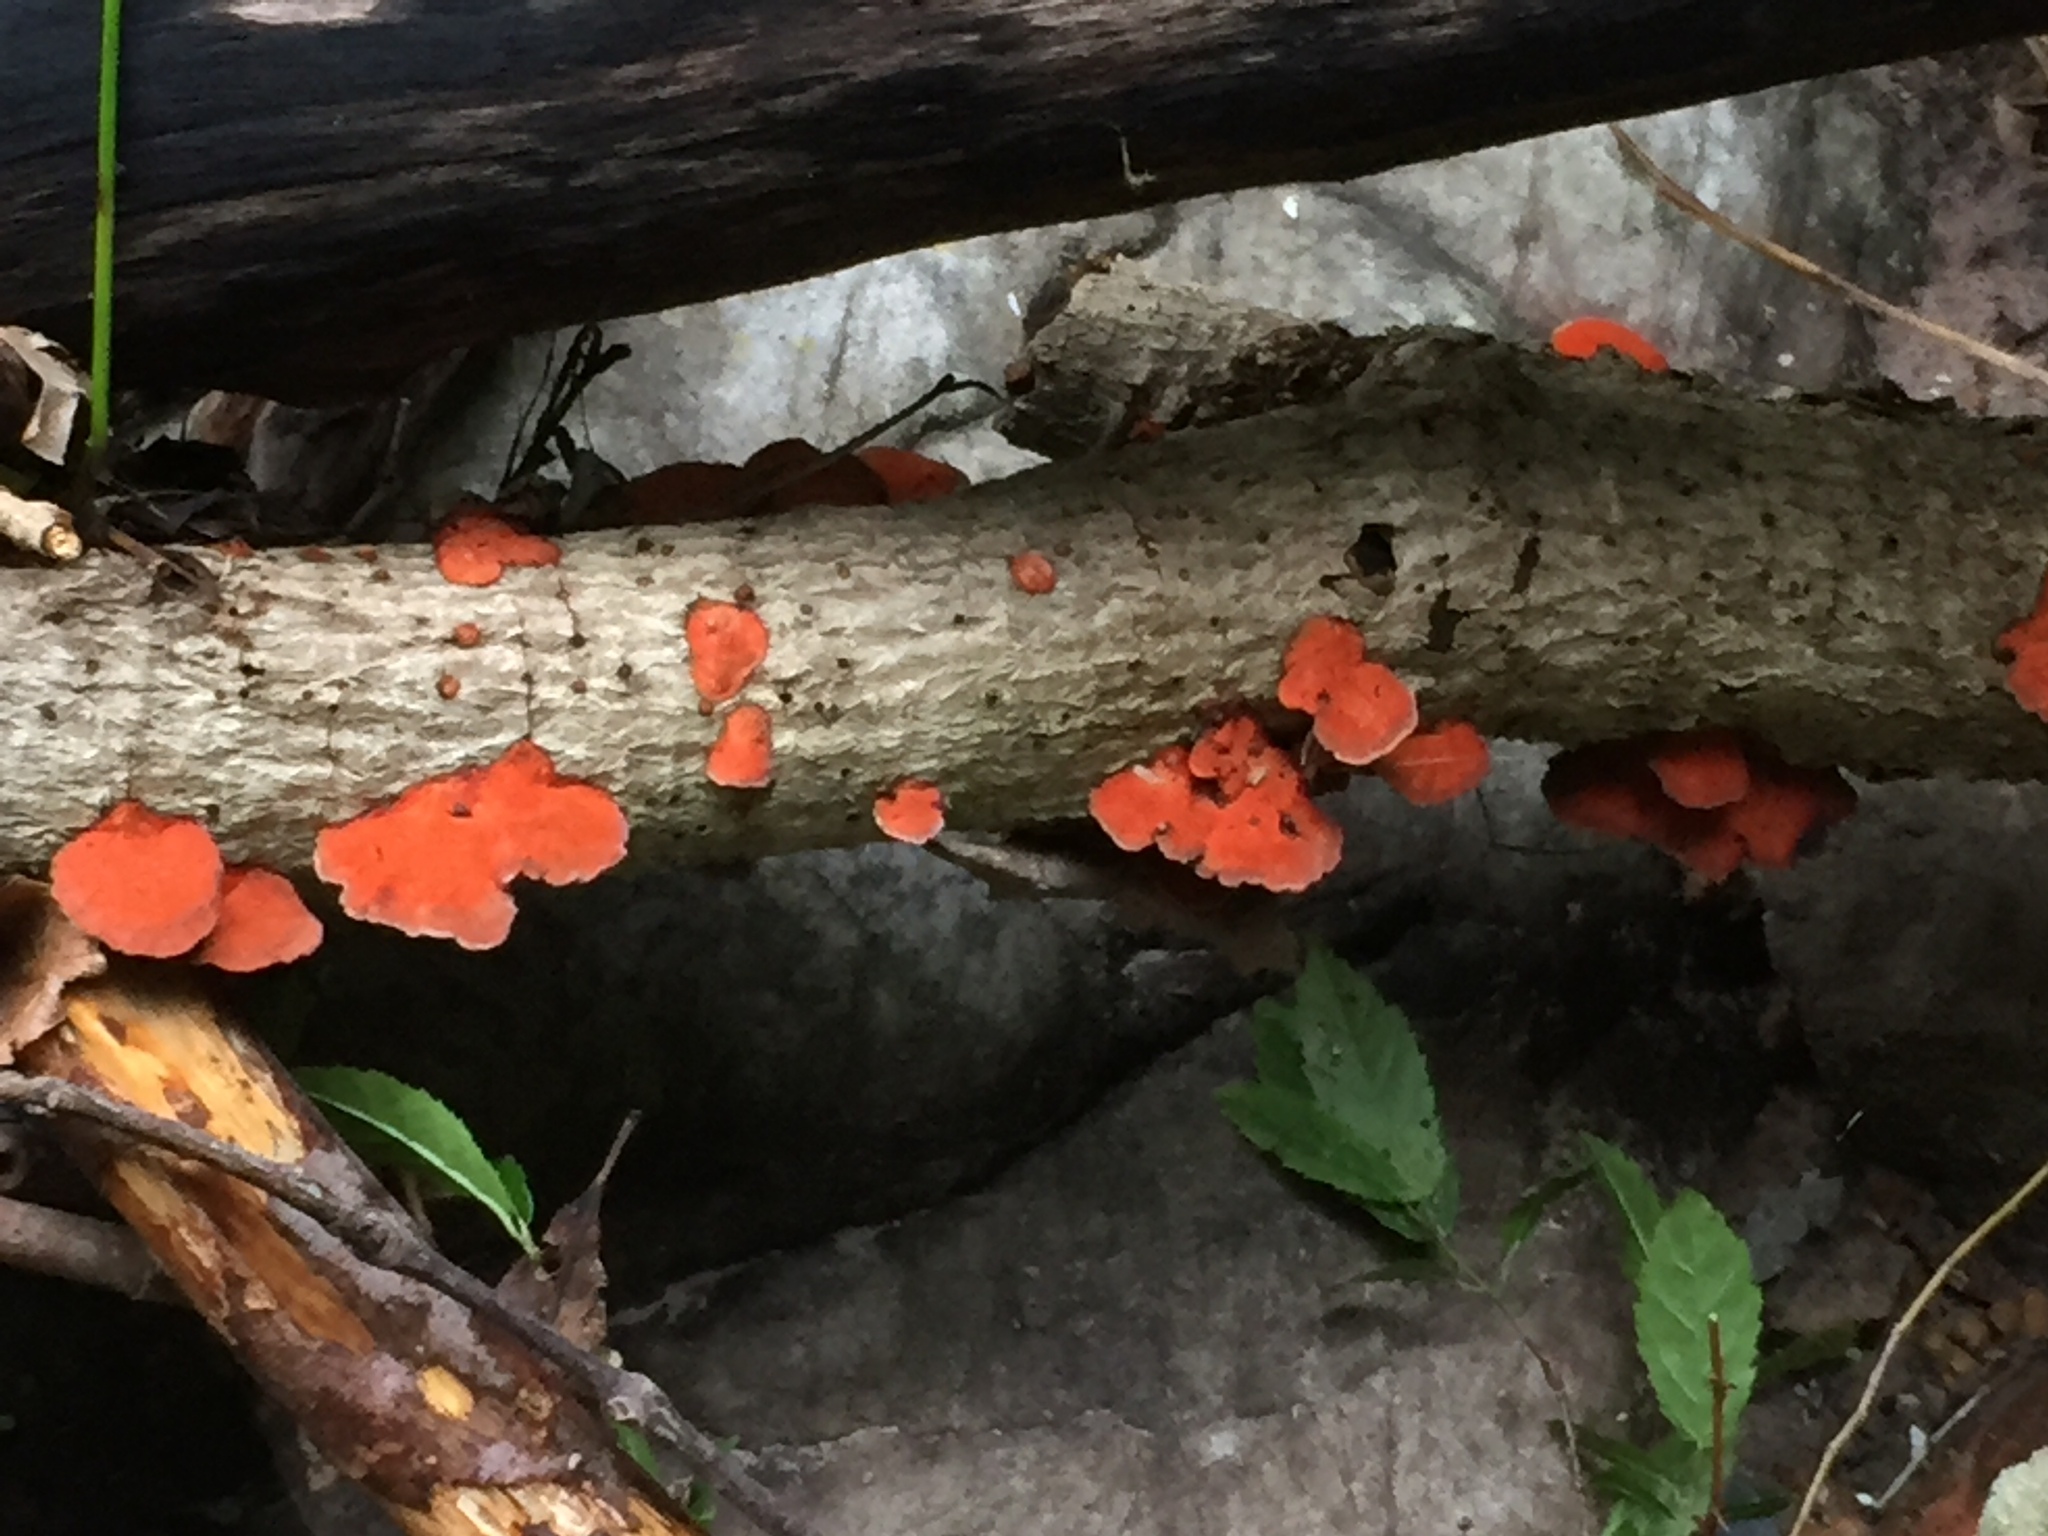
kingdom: Fungi
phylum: Basidiomycota
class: Agaricomycetes
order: Polyporales
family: Polyporaceae
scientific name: Polyporaceae
